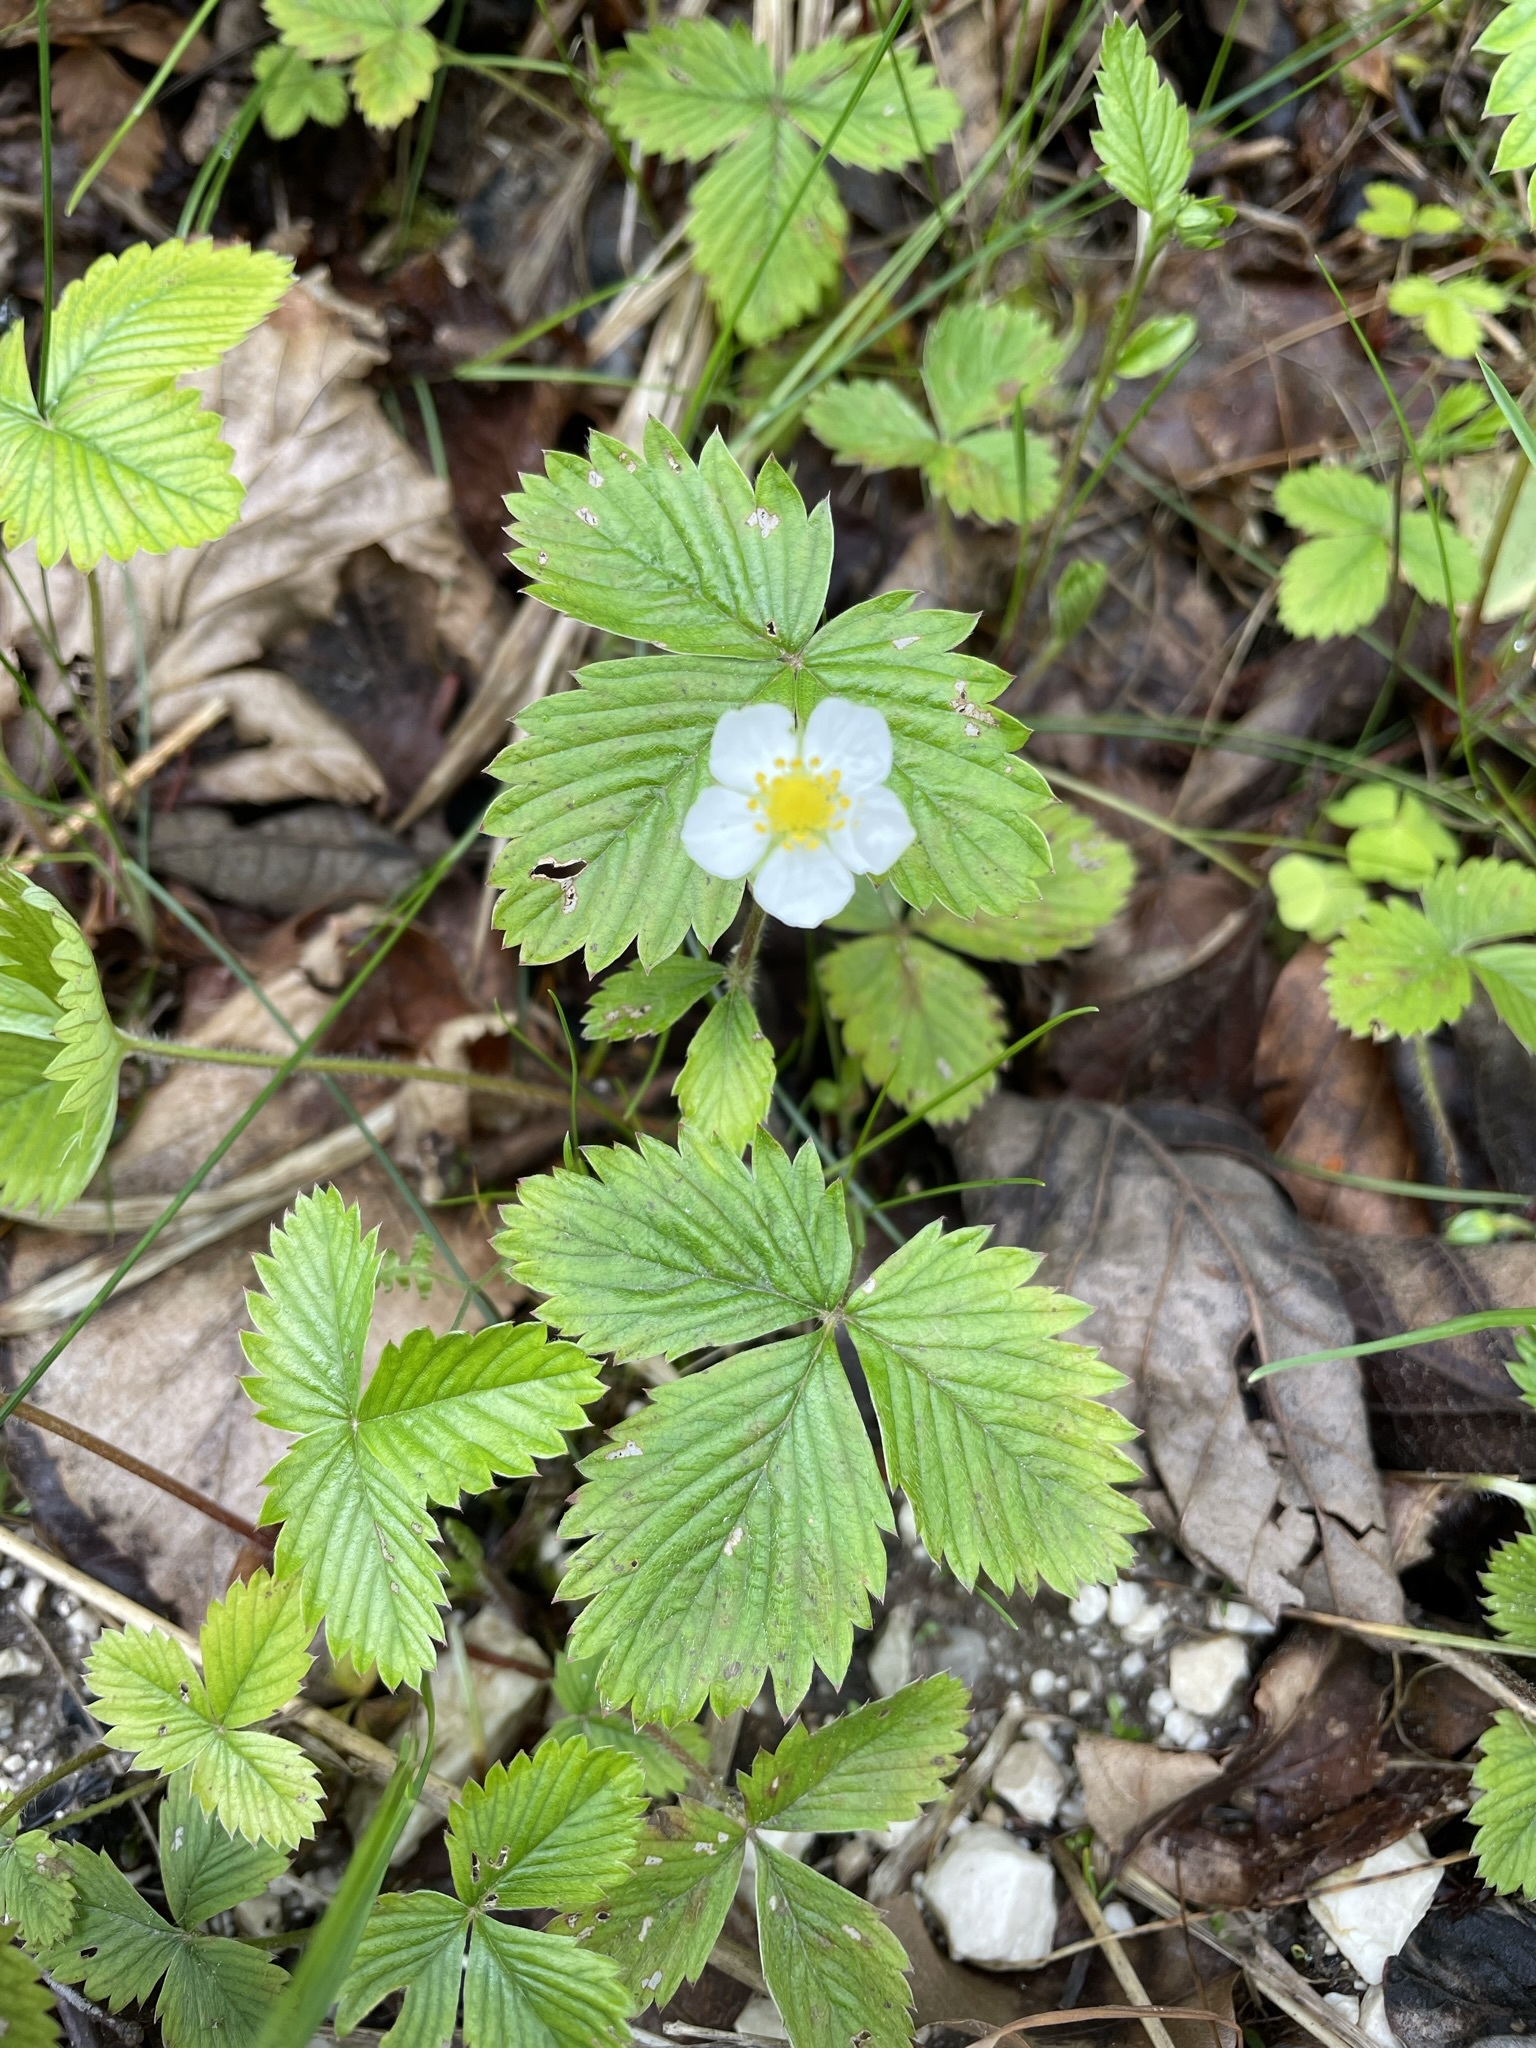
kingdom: Plantae
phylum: Tracheophyta
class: Magnoliopsida
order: Rosales
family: Rosaceae
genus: Fragaria
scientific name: Fragaria vesca
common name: Wild strawberry
